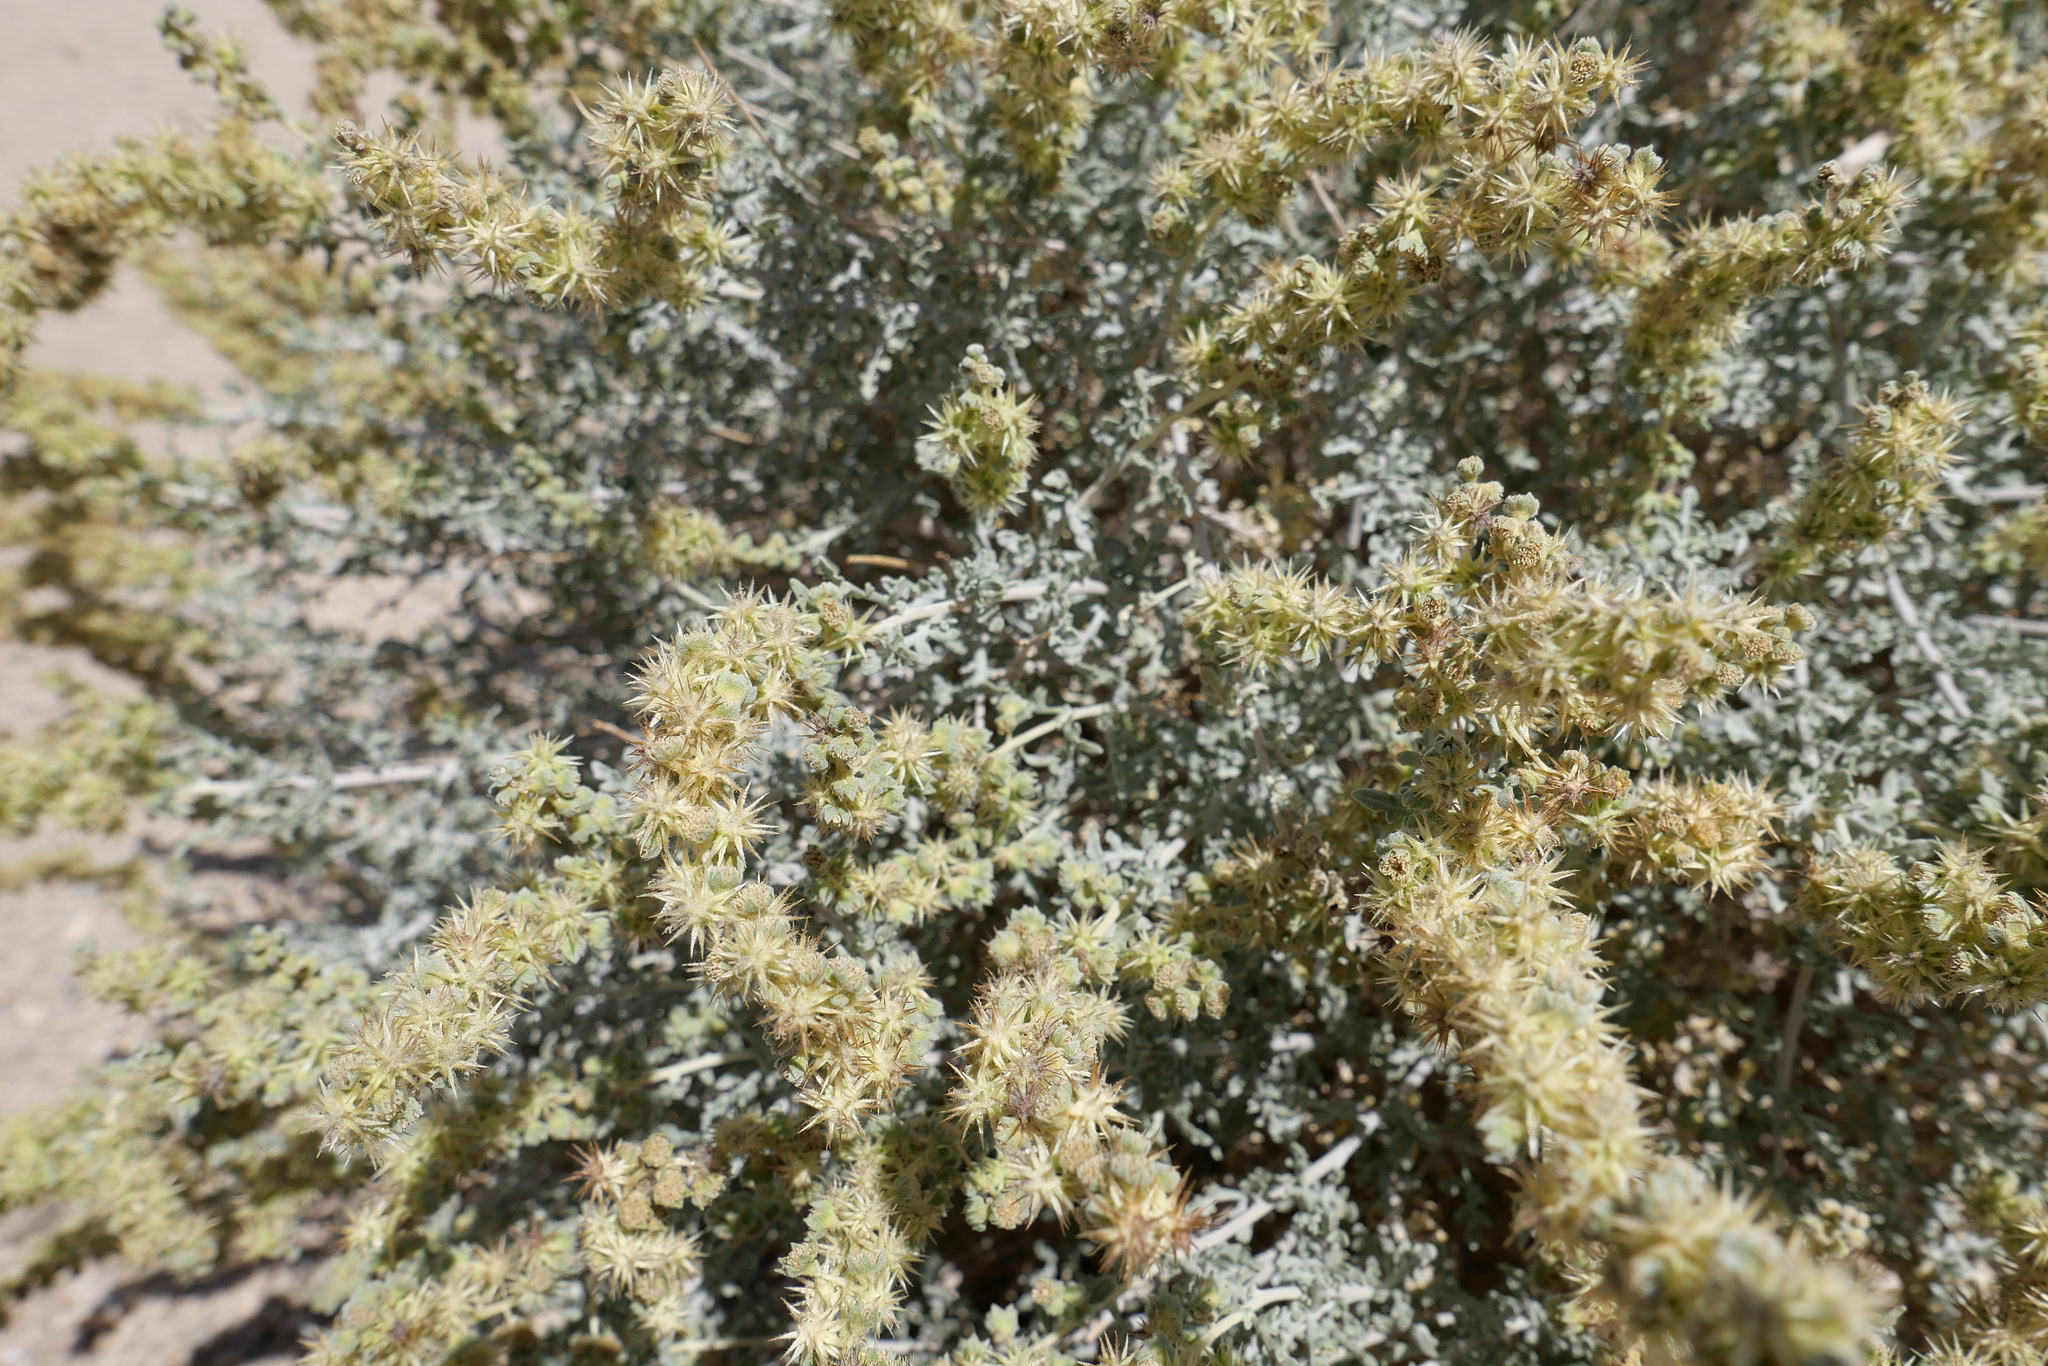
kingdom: Plantae
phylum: Tracheophyta
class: Magnoliopsida
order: Asterales
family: Asteraceae
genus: Ambrosia
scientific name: Ambrosia dumosa
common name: Bur-sage
